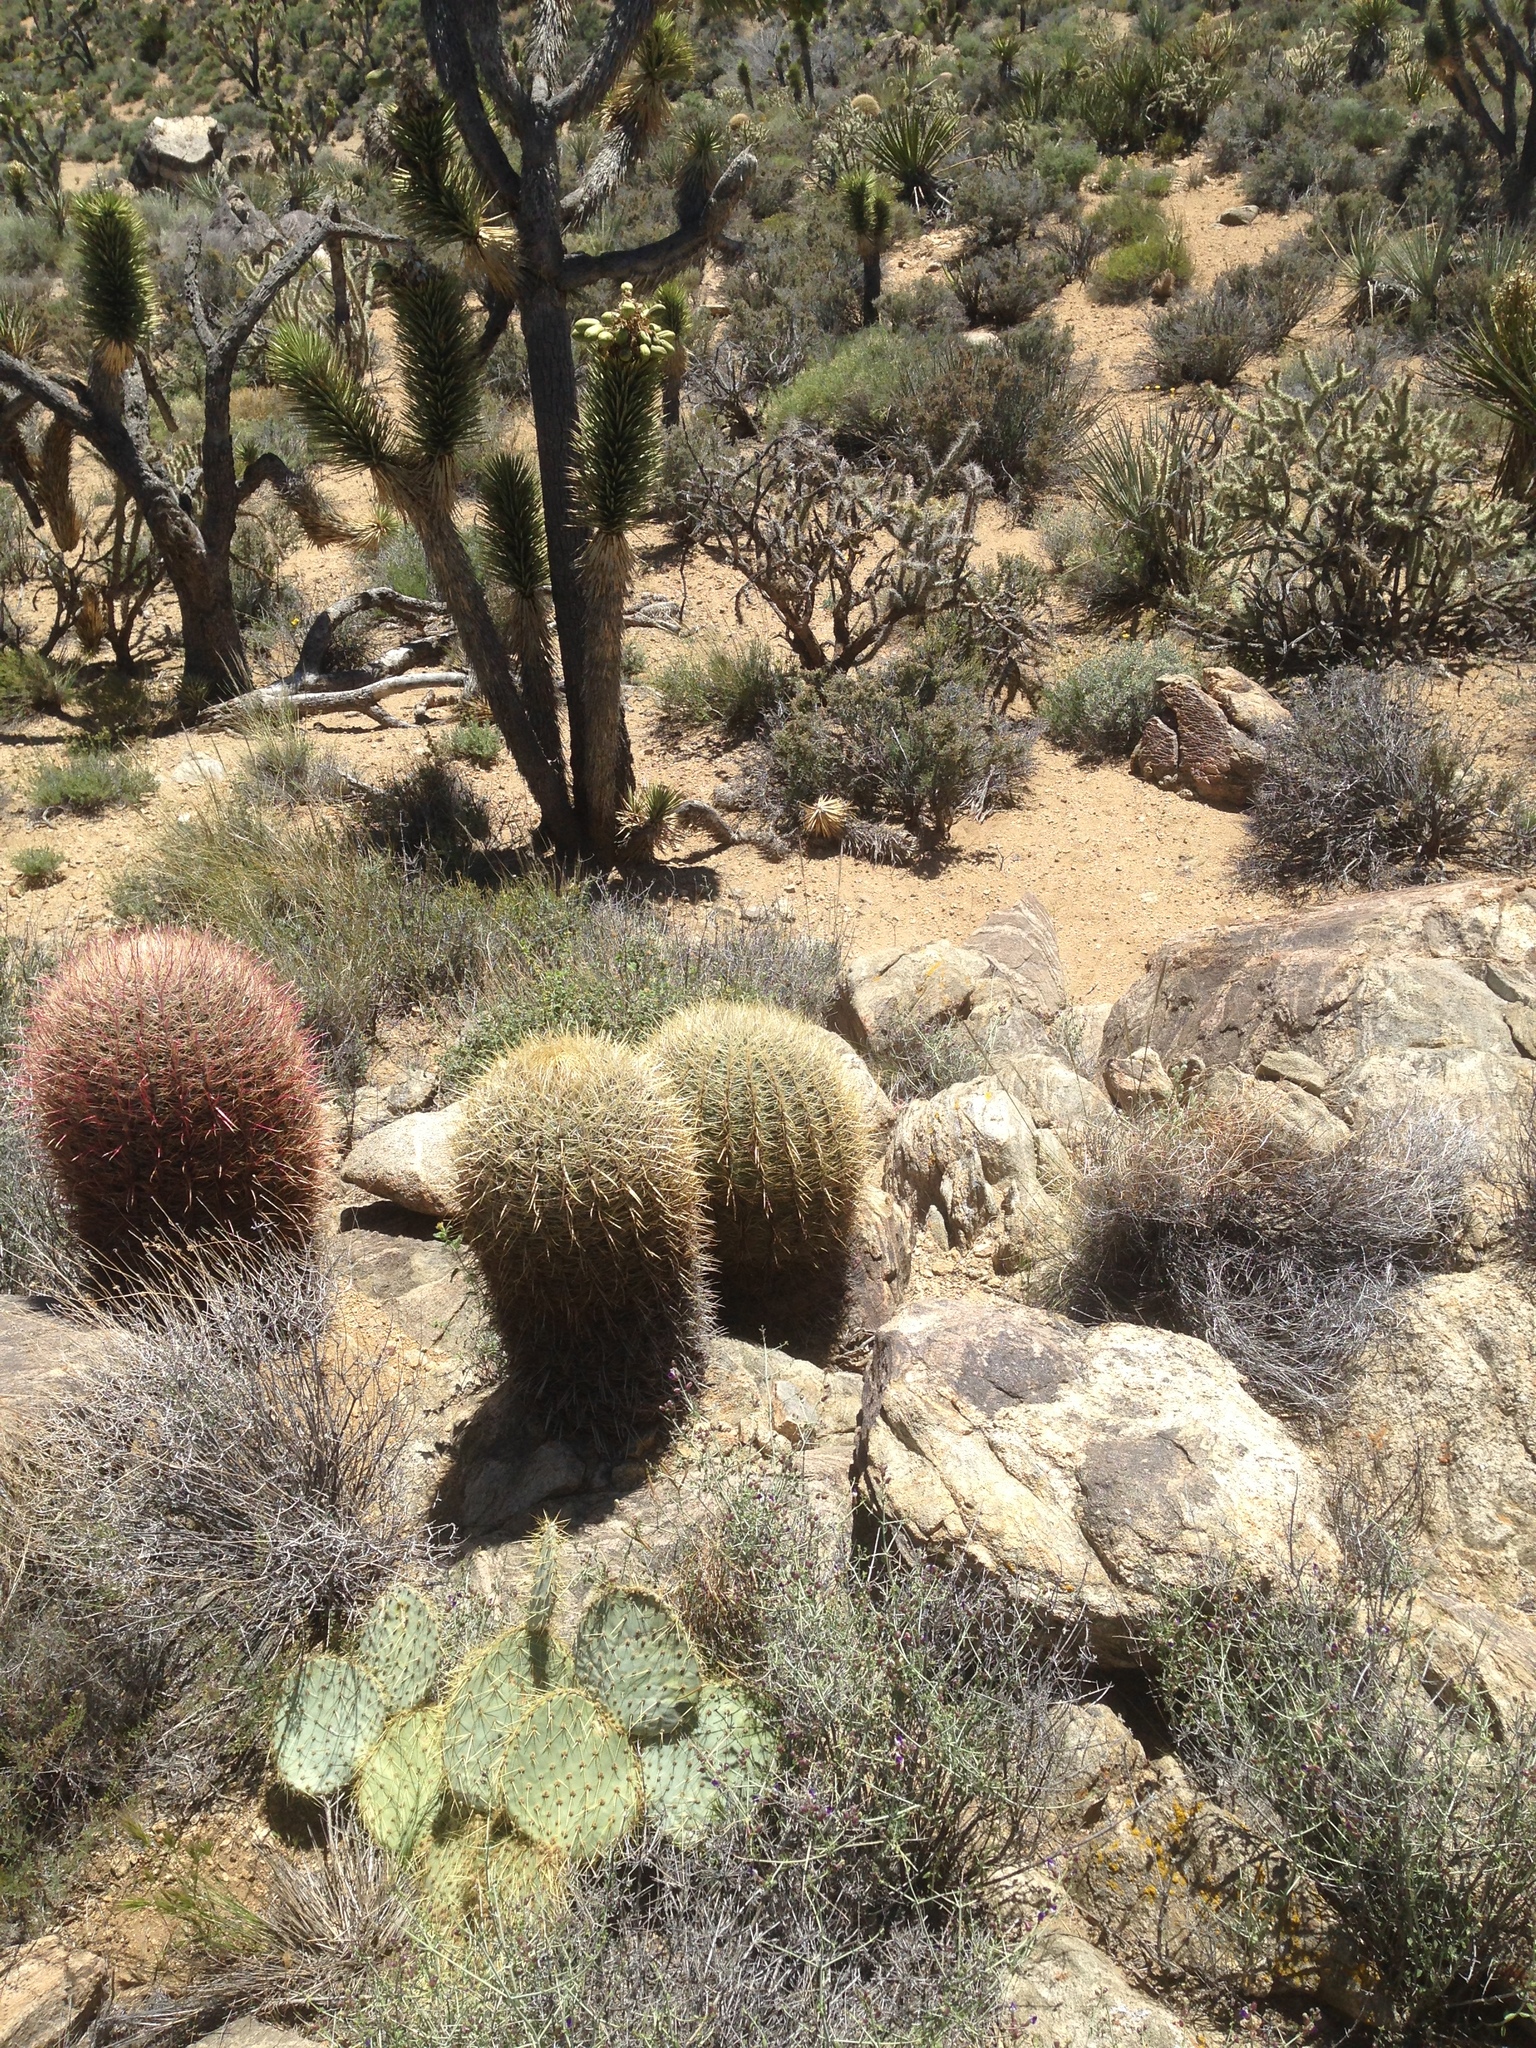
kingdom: Plantae
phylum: Tracheophyta
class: Magnoliopsida
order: Caryophyllales
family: Cactaceae
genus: Ferocactus
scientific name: Ferocactus cylindraceus
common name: California barrel cactus
